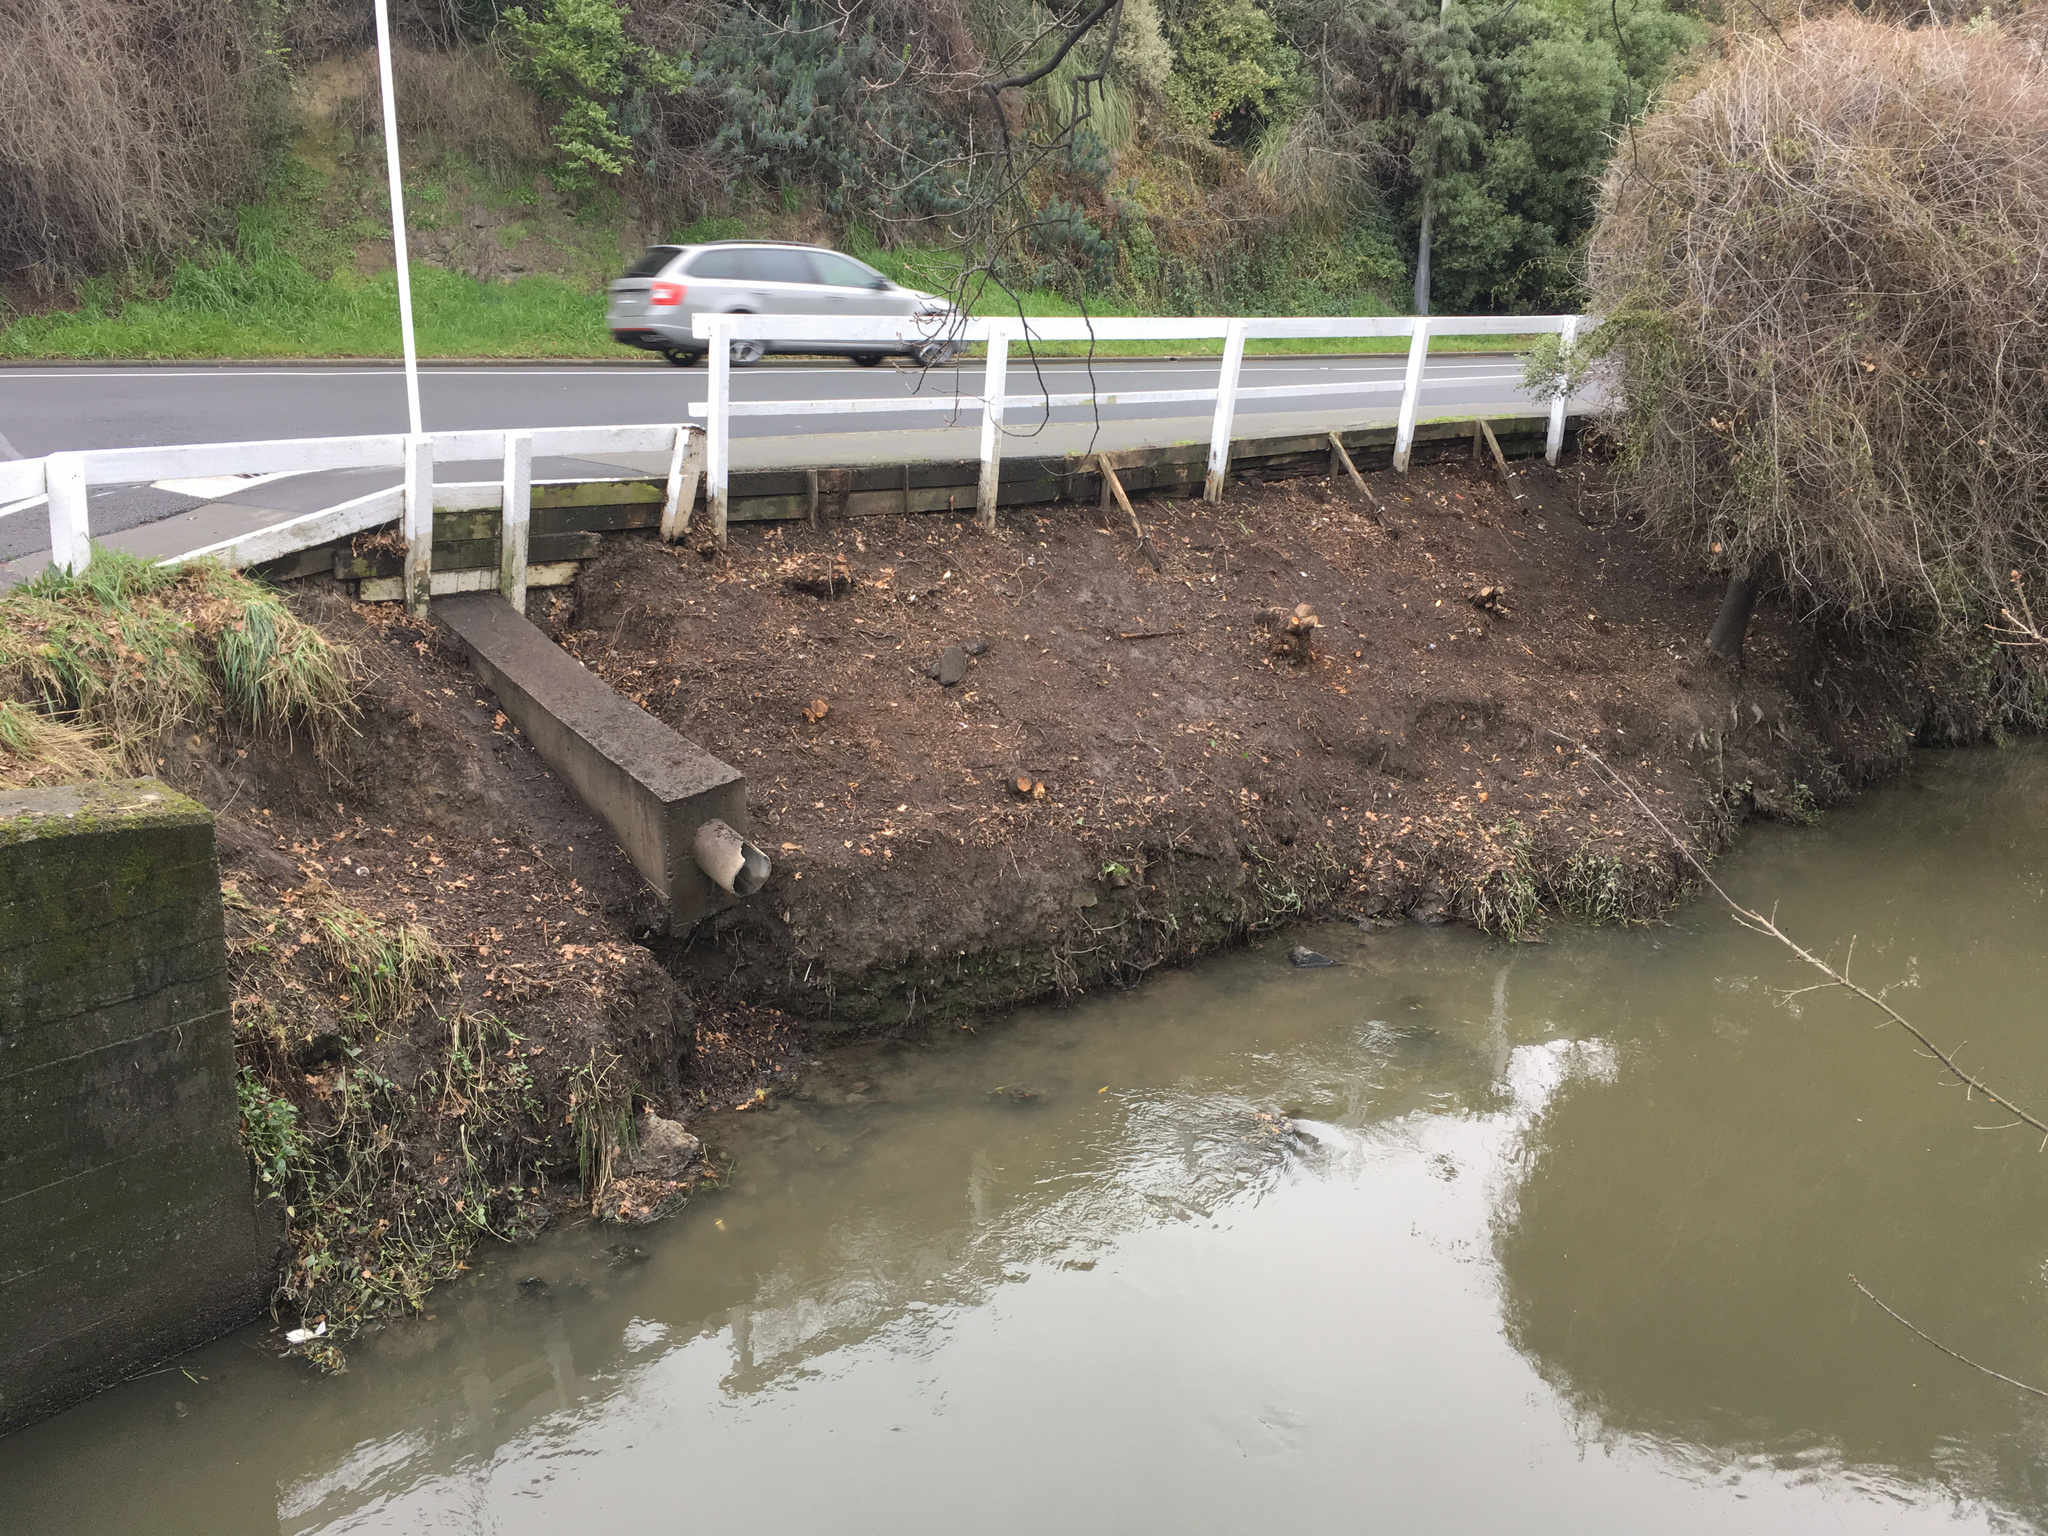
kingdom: Plantae
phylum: Tracheophyta
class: Magnoliopsida
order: Caryophyllales
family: Polygonaceae
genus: Muehlenbeckia
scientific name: Muehlenbeckia australis
